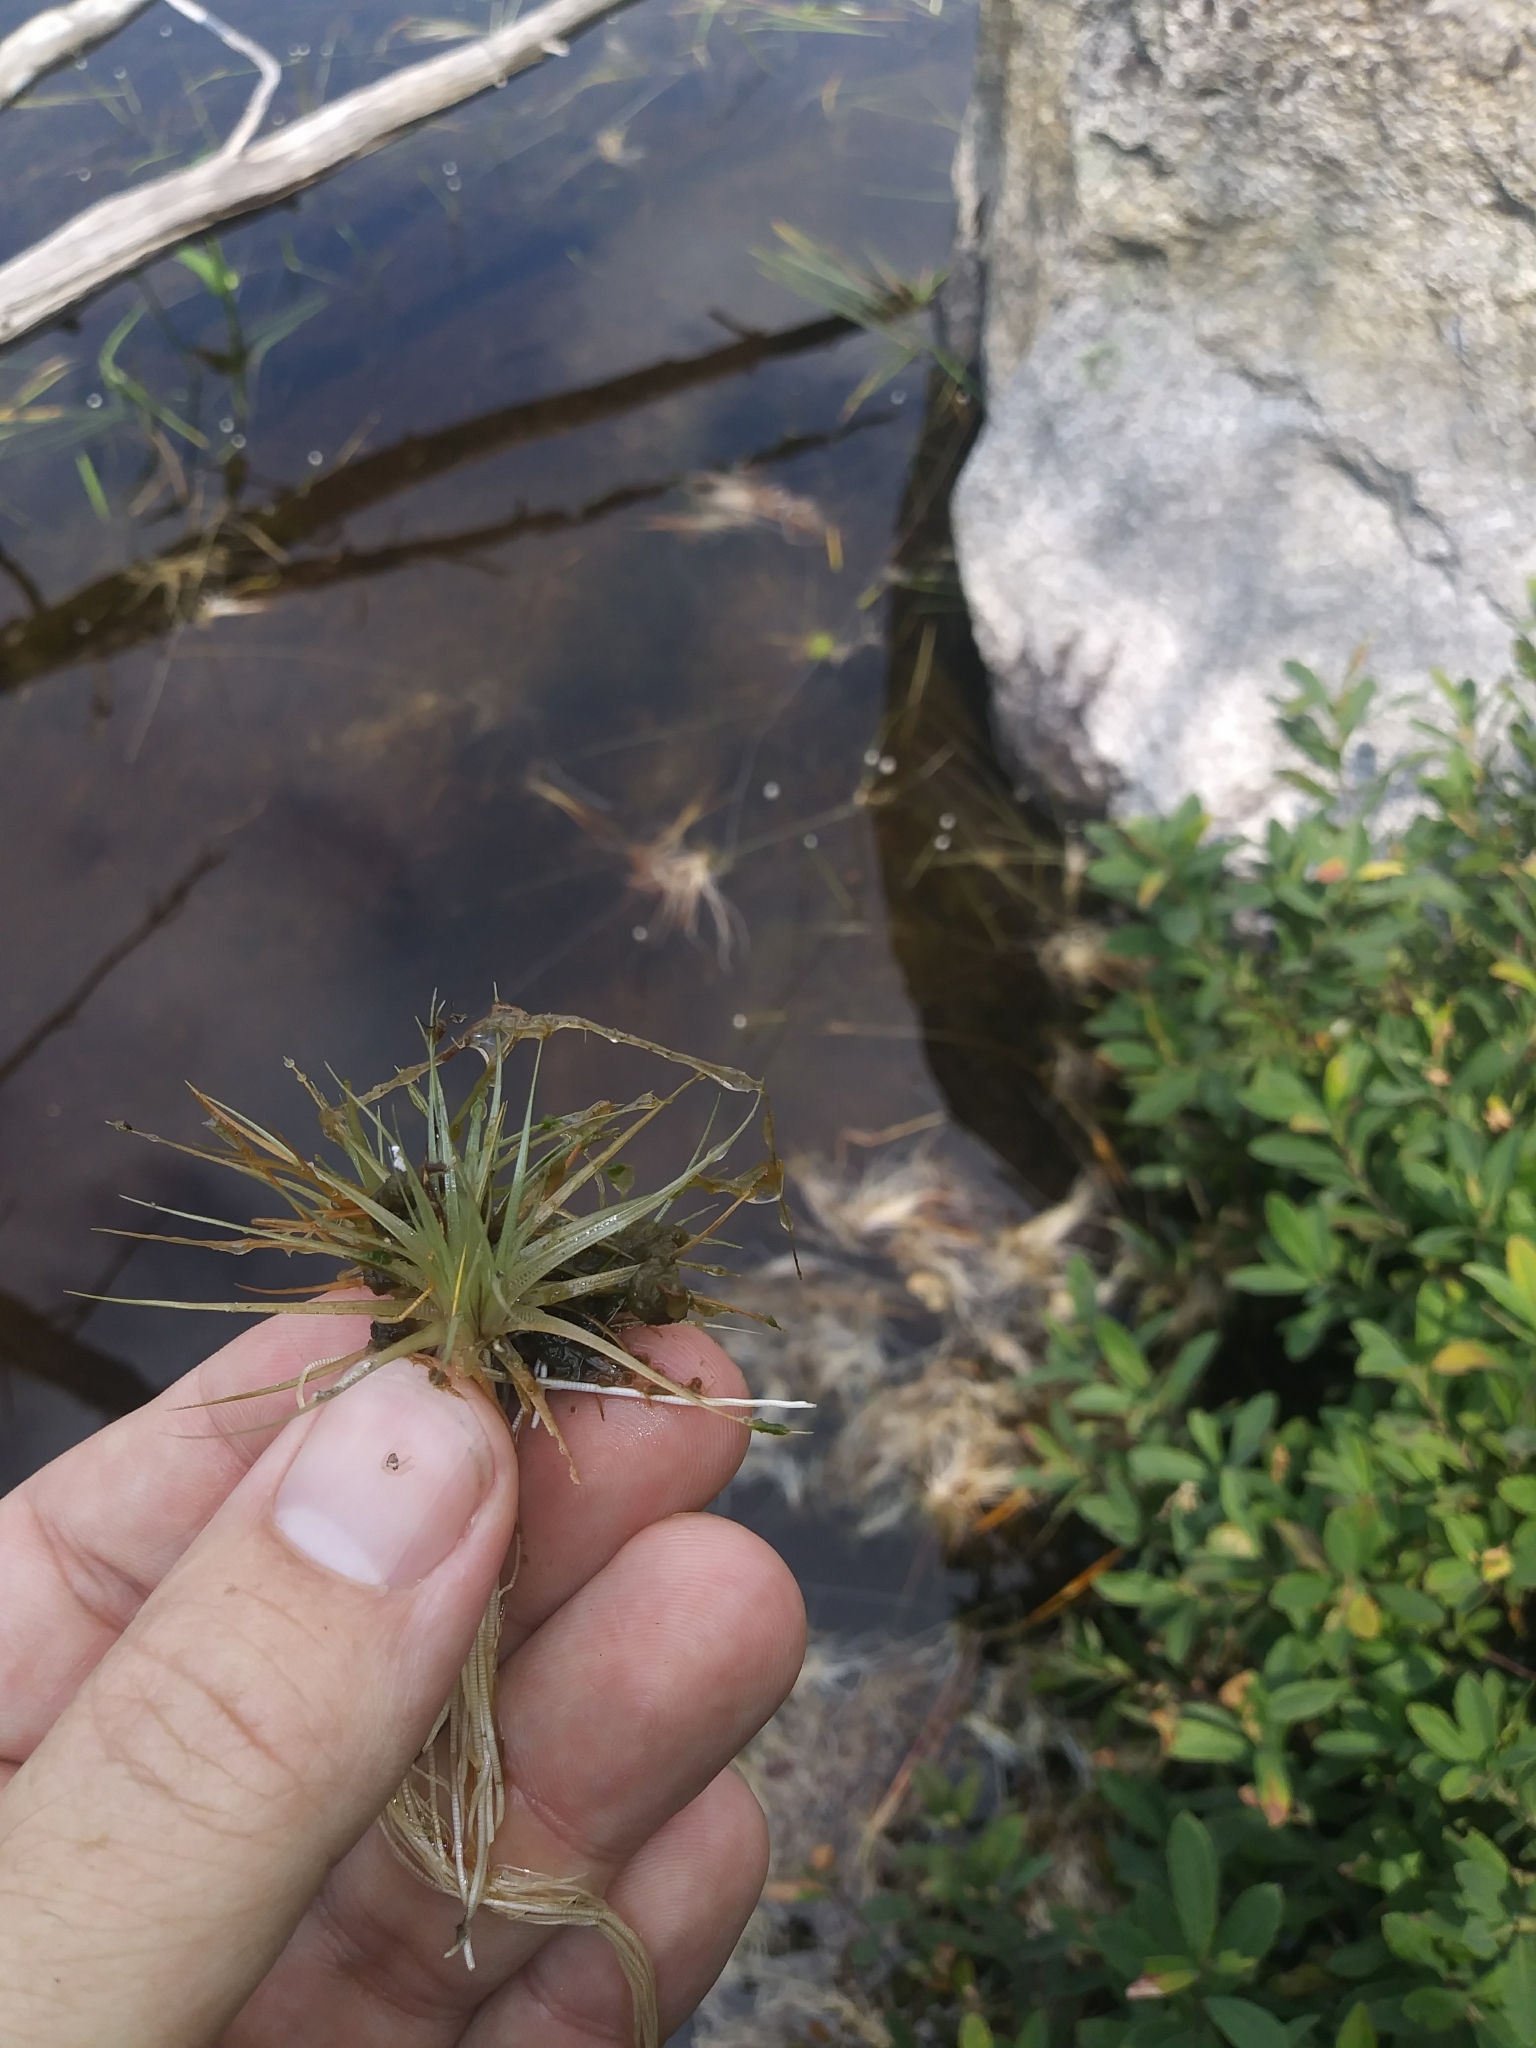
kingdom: Plantae
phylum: Tracheophyta
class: Liliopsida
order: Poales
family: Eriocaulaceae
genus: Eriocaulon
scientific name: Eriocaulon aquaticum
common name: Pipewort
